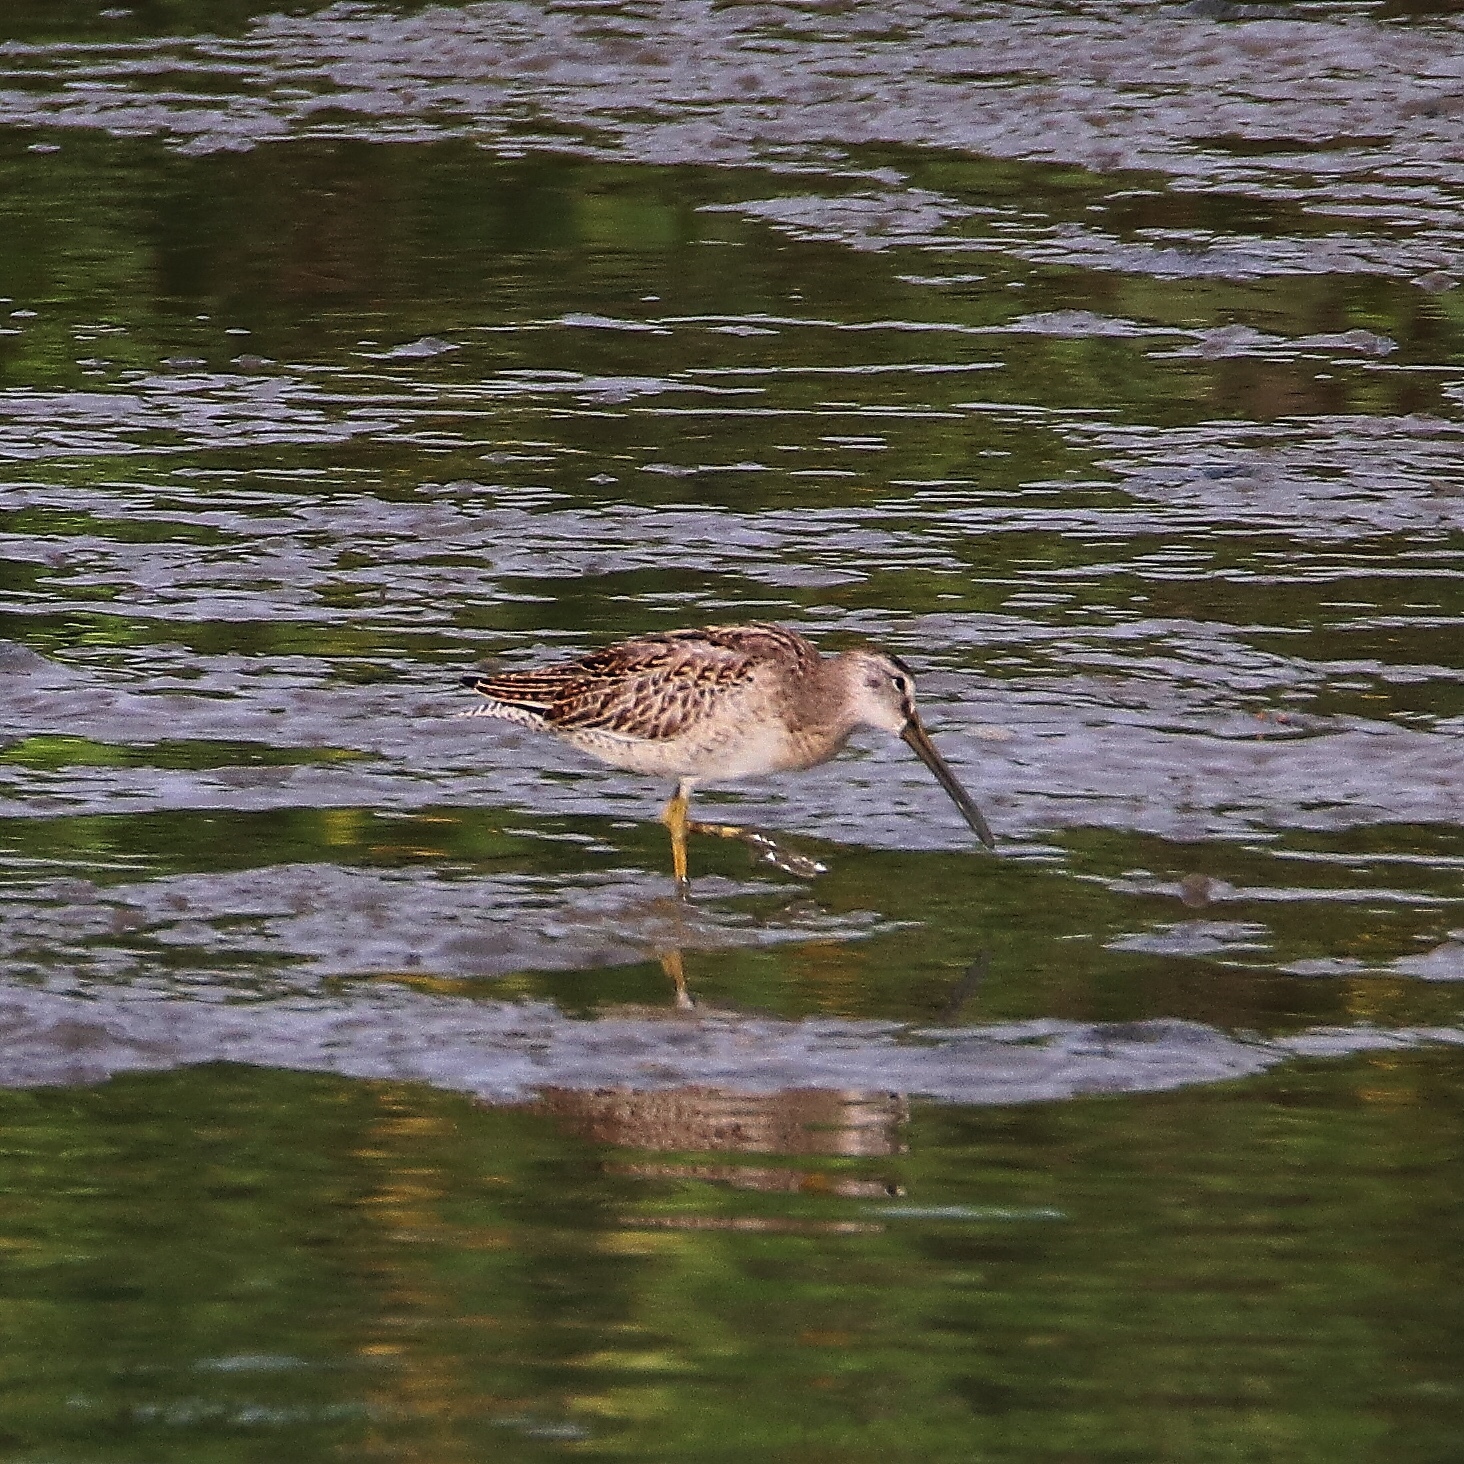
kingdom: Animalia
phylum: Chordata
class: Aves
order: Charadriiformes
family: Scolopacidae
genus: Limnodromus
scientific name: Limnodromus griseus
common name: Short-billed dowitcher
